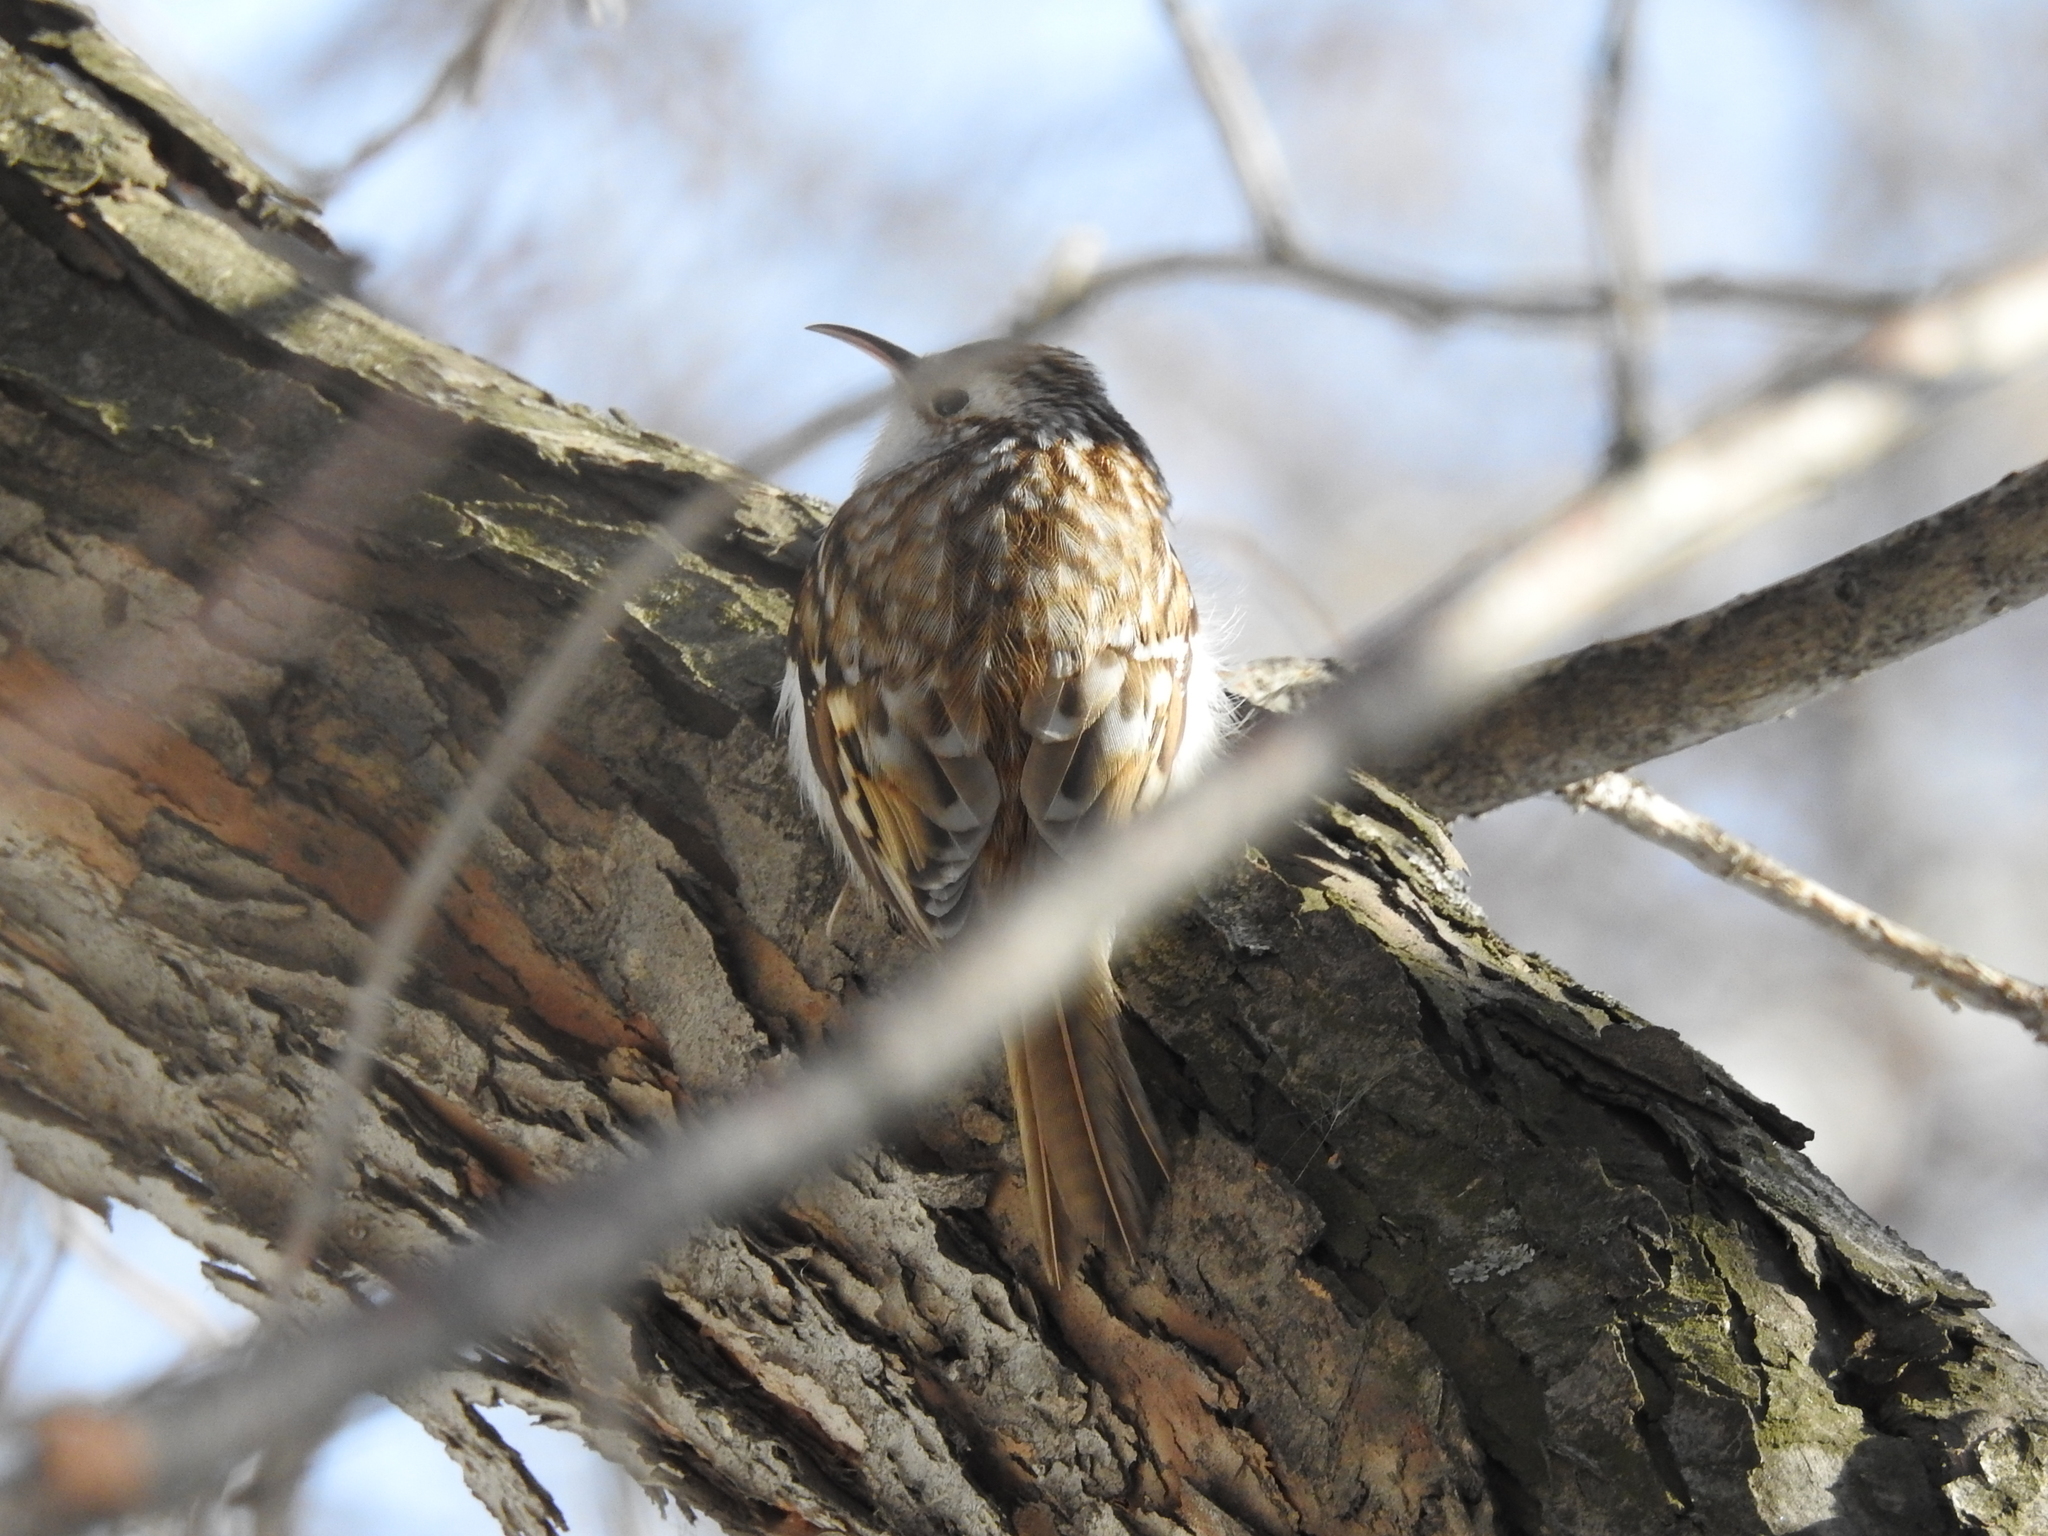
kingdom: Animalia
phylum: Chordata
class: Aves
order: Passeriformes
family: Certhiidae
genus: Certhia
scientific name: Certhia familiaris
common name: Eurasian treecreeper
